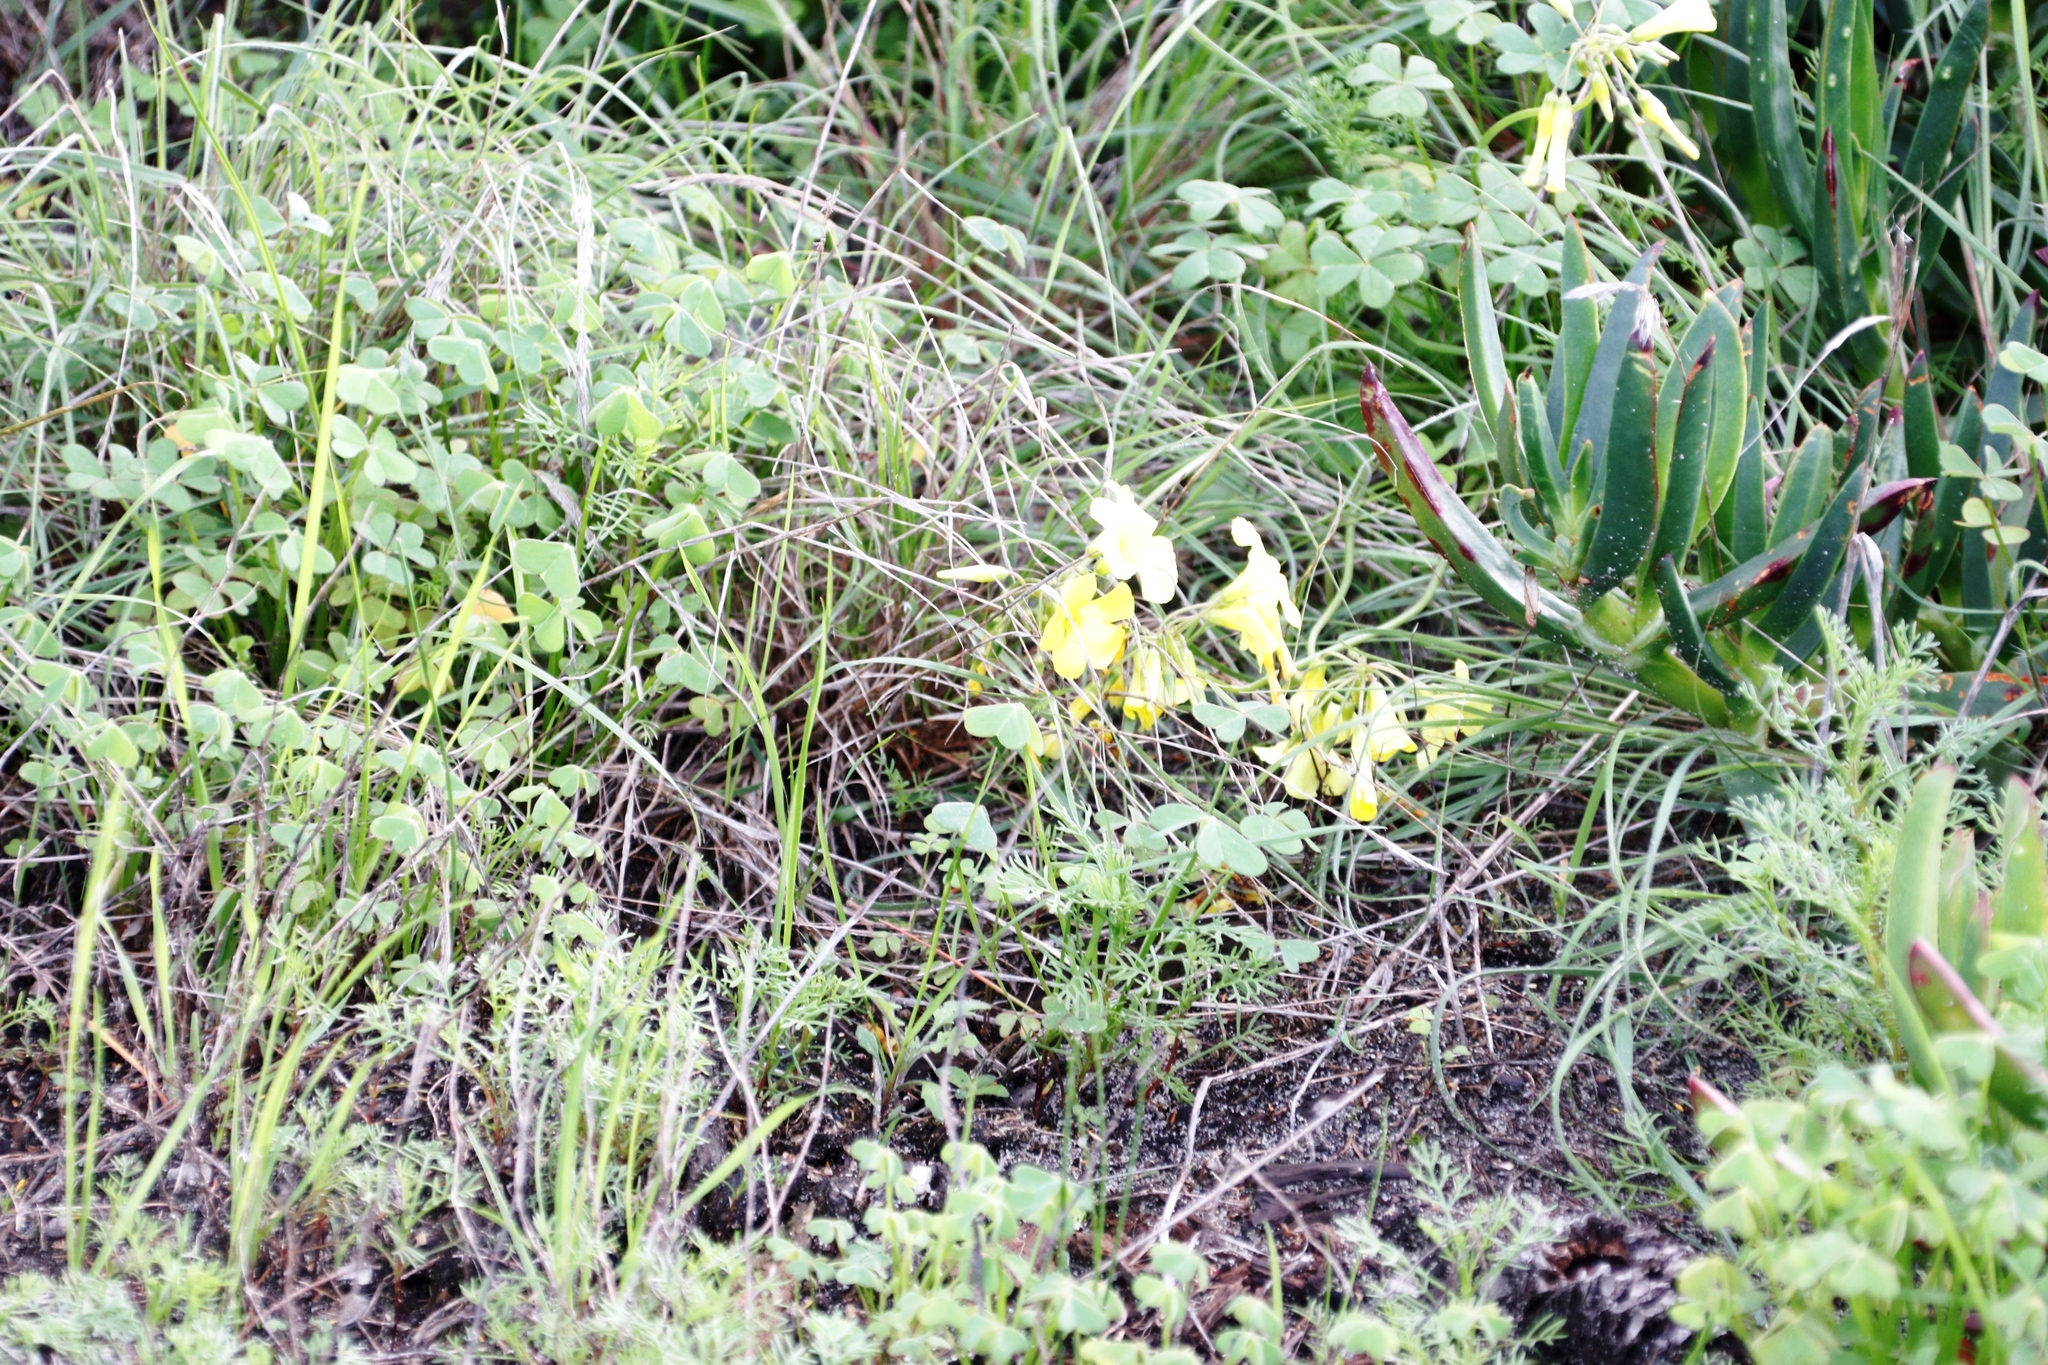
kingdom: Plantae
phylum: Tracheophyta
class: Magnoliopsida
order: Oxalidales
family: Oxalidaceae
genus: Oxalis
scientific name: Oxalis pes-caprae
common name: Bermuda-buttercup
